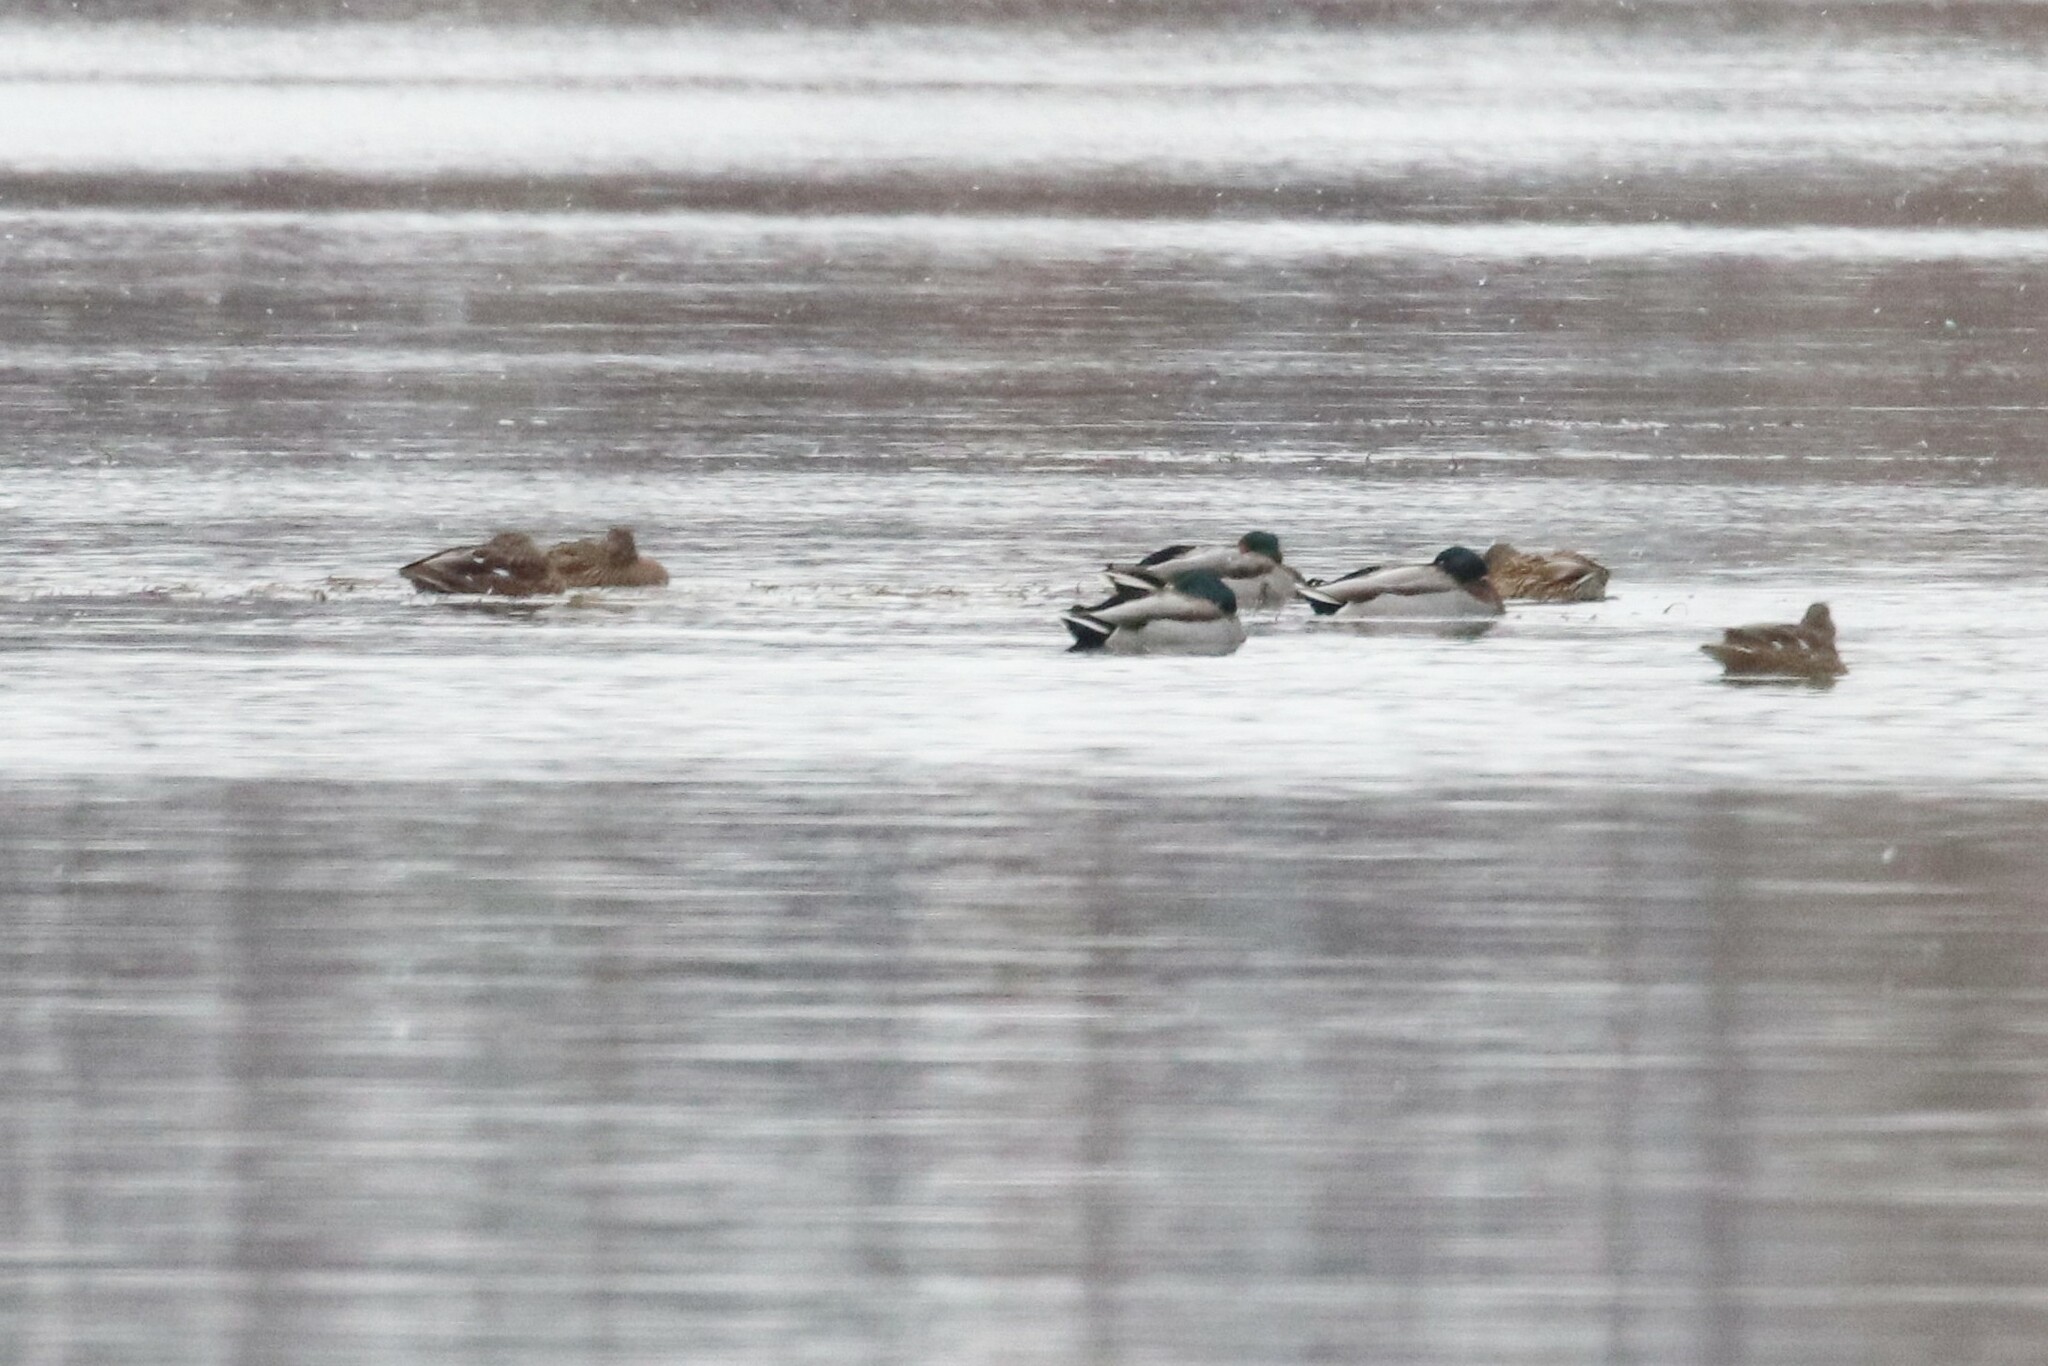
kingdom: Animalia
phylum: Chordata
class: Aves
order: Anseriformes
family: Anatidae
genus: Anas
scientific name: Anas platyrhynchos
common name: Mallard
